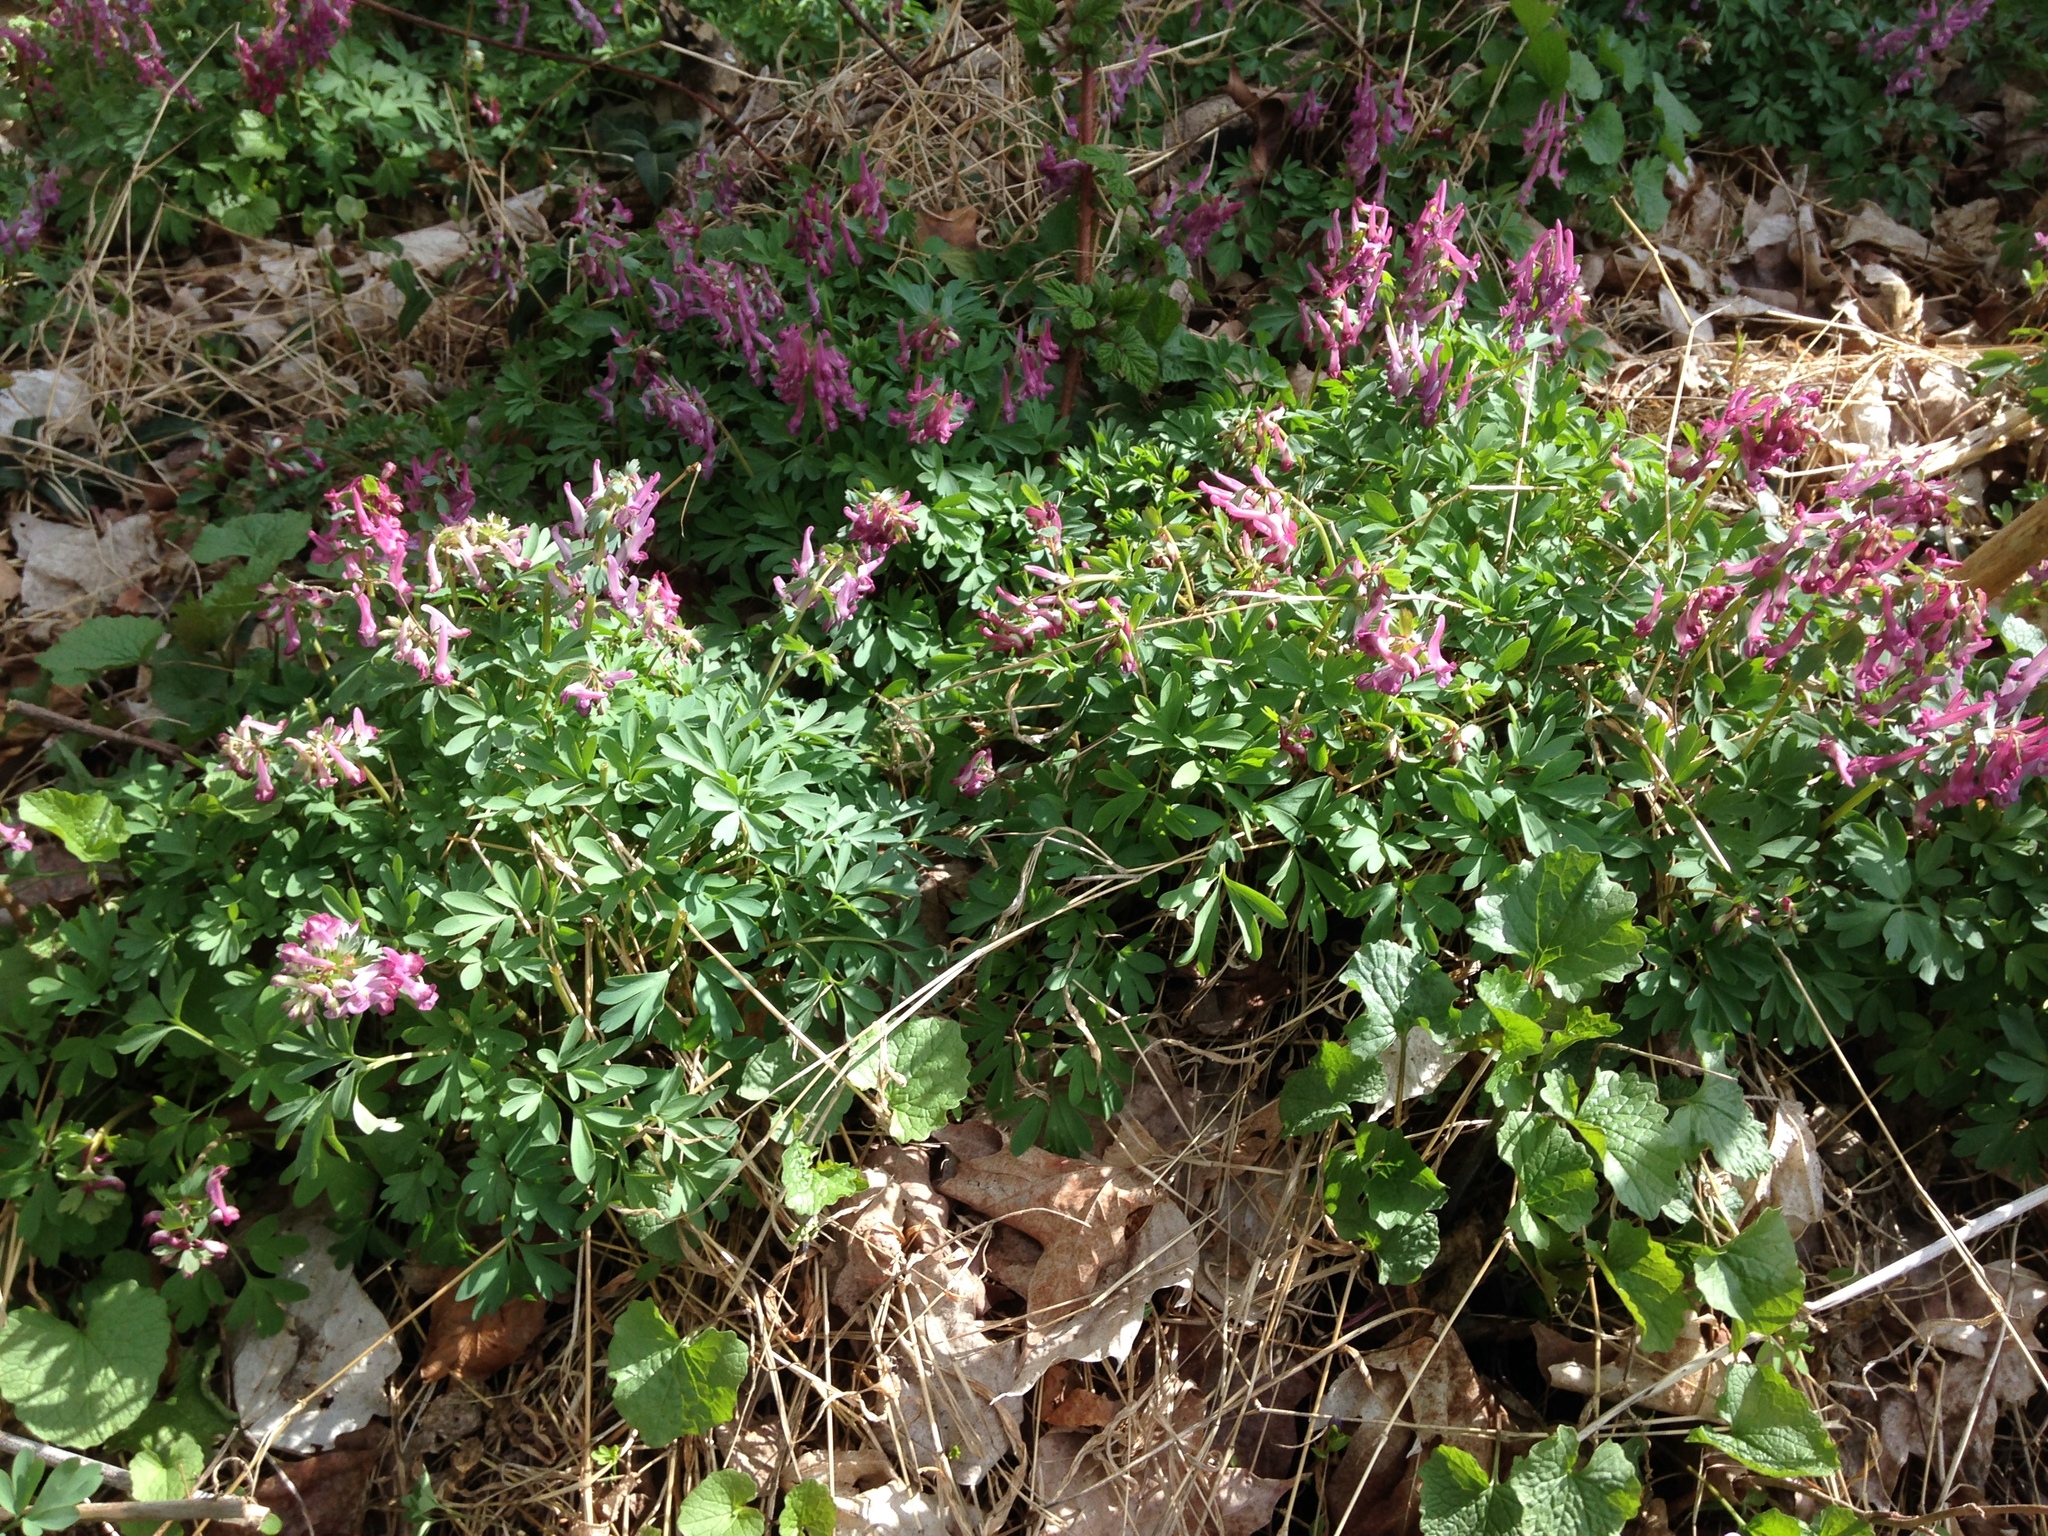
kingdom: Plantae
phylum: Tracheophyta
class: Magnoliopsida
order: Ranunculales
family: Papaveraceae
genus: Corydalis
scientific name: Corydalis solida
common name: Bird-in-a-bush
